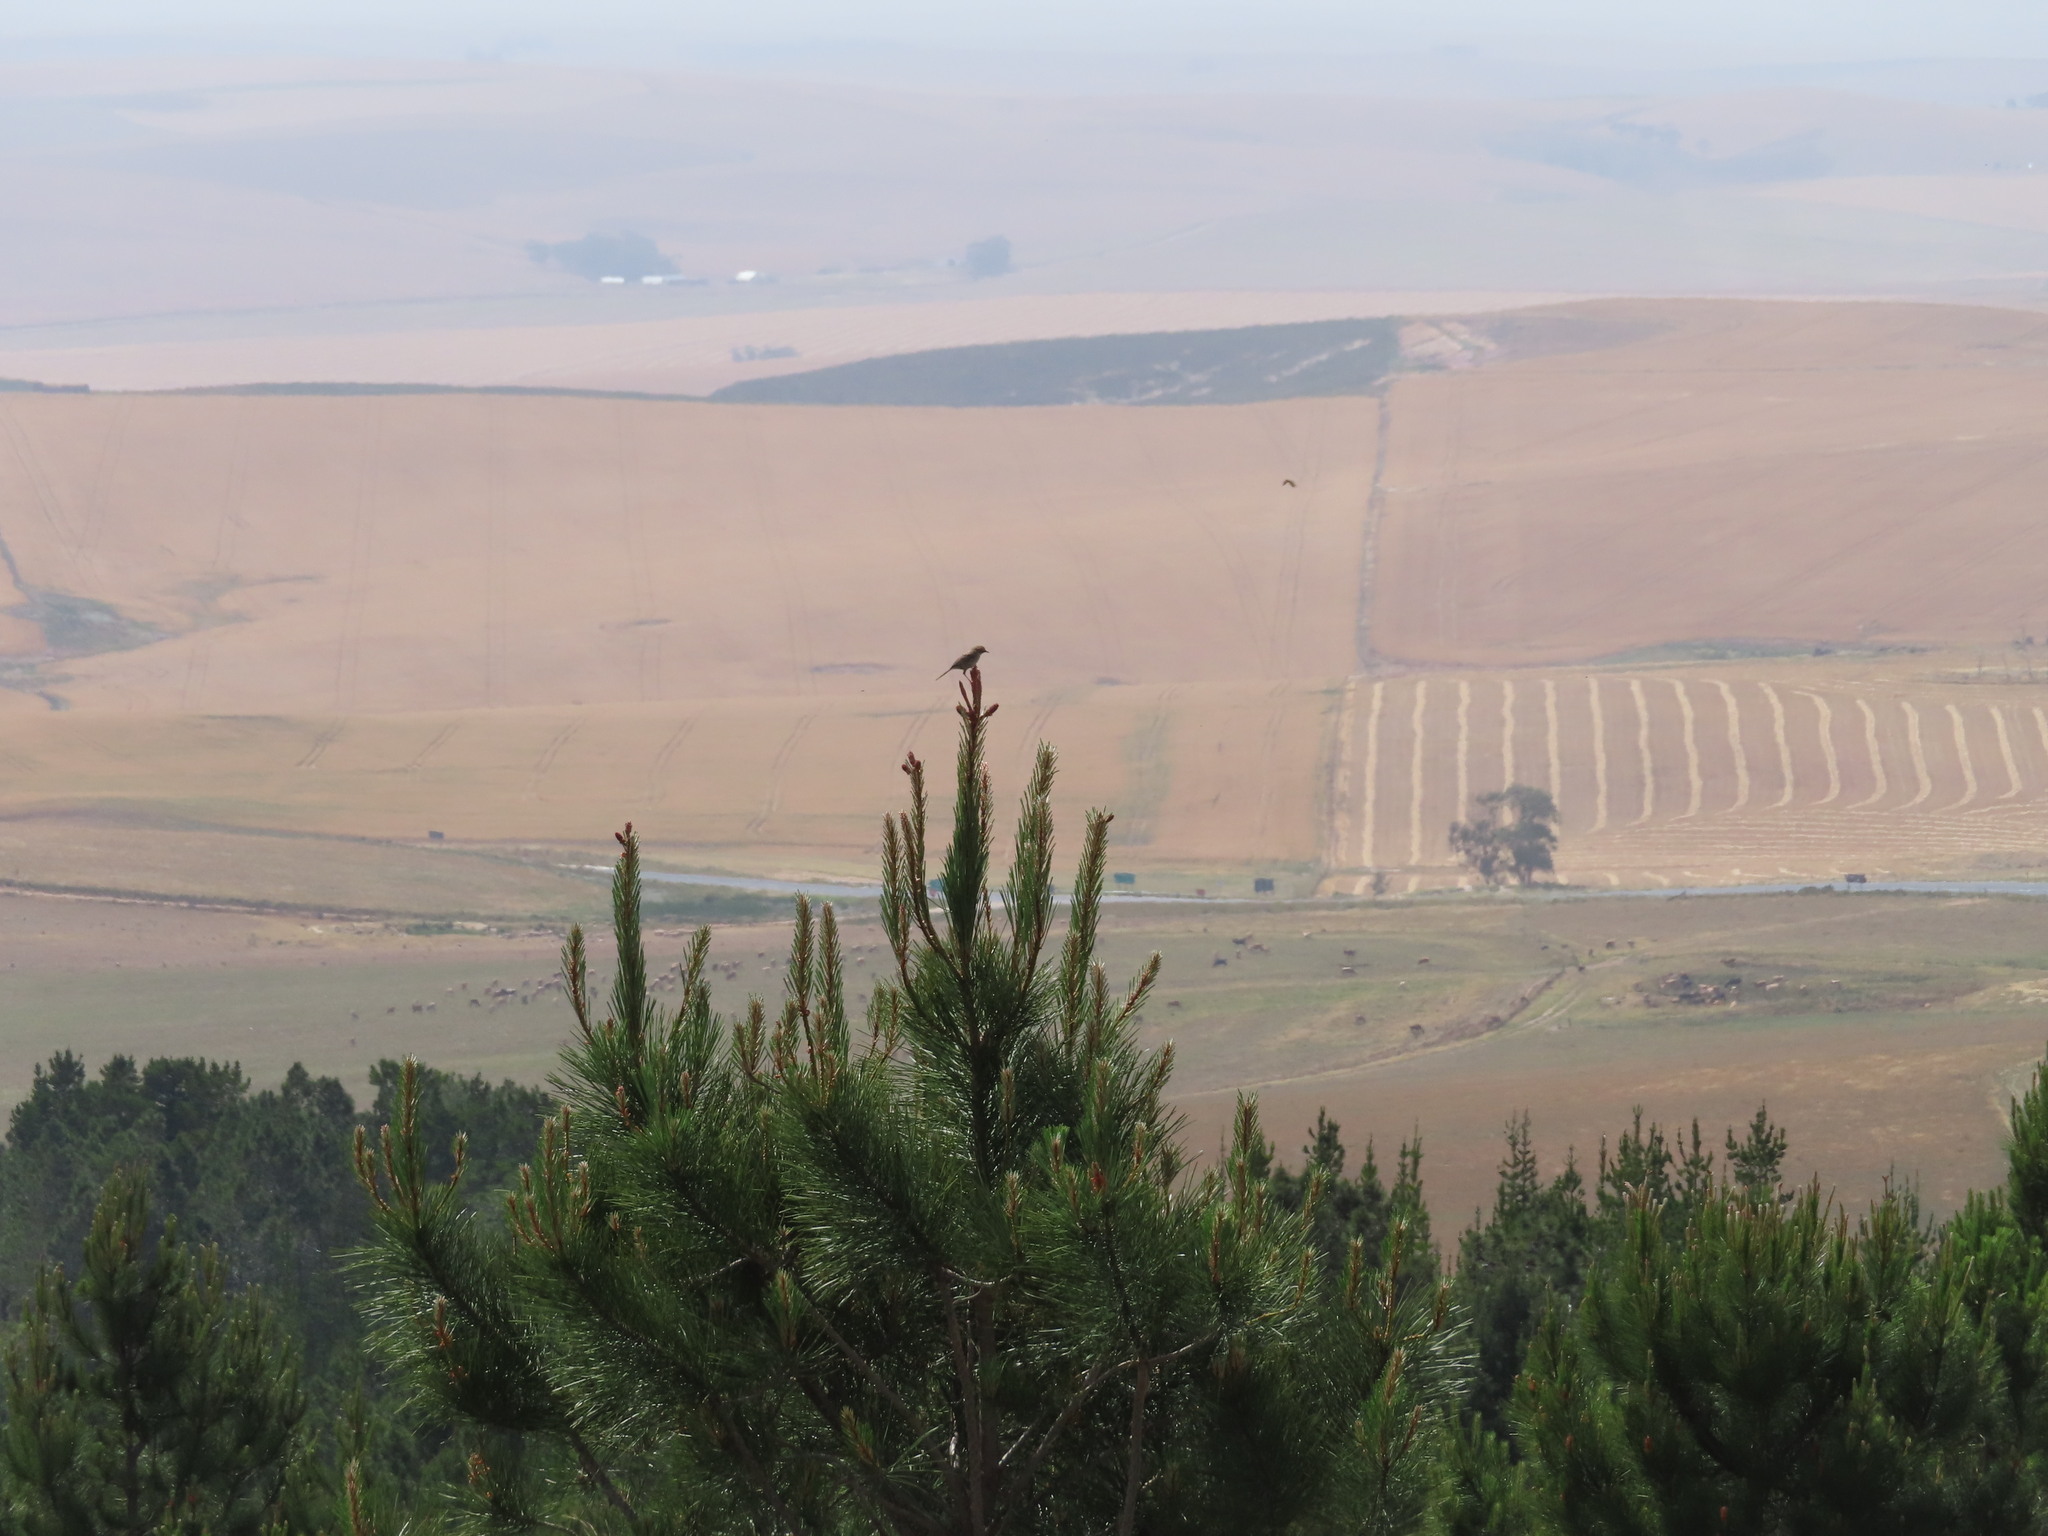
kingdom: Animalia
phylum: Chordata
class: Aves
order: Passeriformes
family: Cisticolidae
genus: Prinia
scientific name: Prinia maculosa
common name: Karoo prinia
